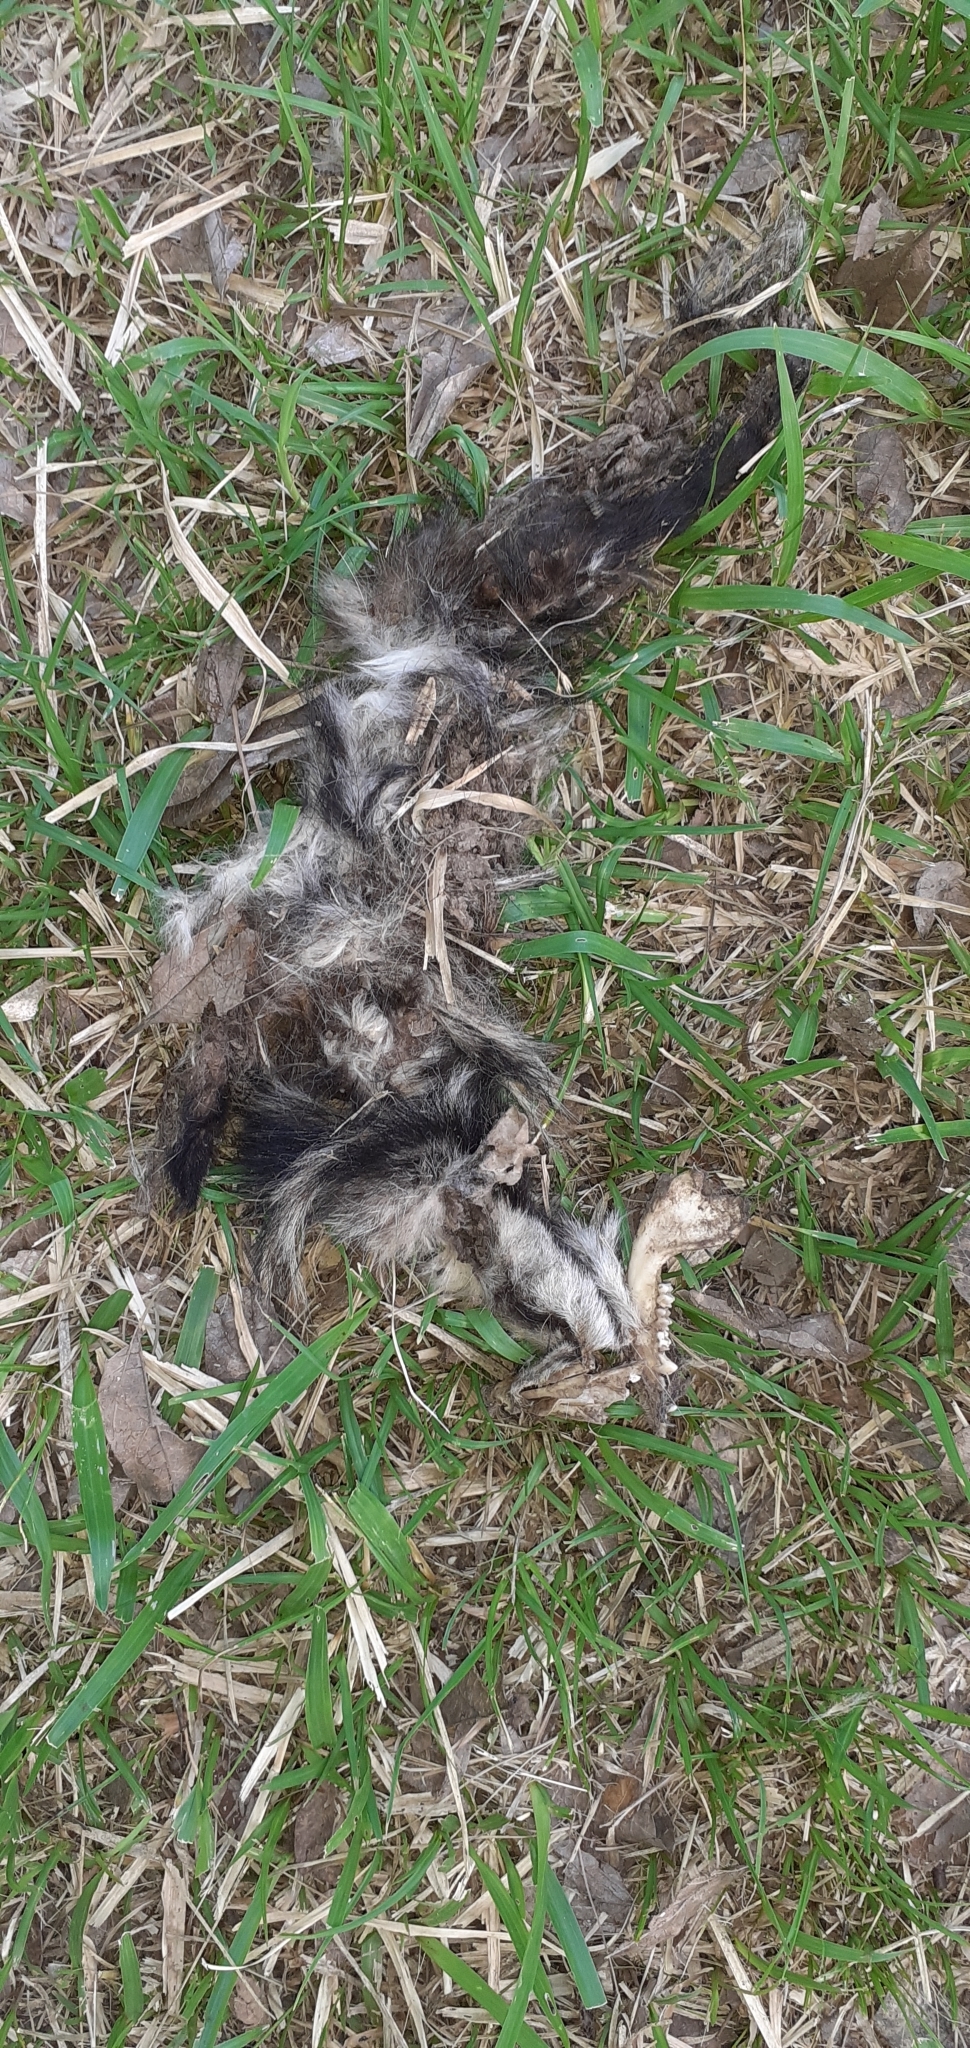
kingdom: Animalia
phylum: Chordata
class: Mammalia
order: Didelphimorphia
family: Didelphidae
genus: Didelphis
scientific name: Didelphis albiventris
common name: White-eared opossum
